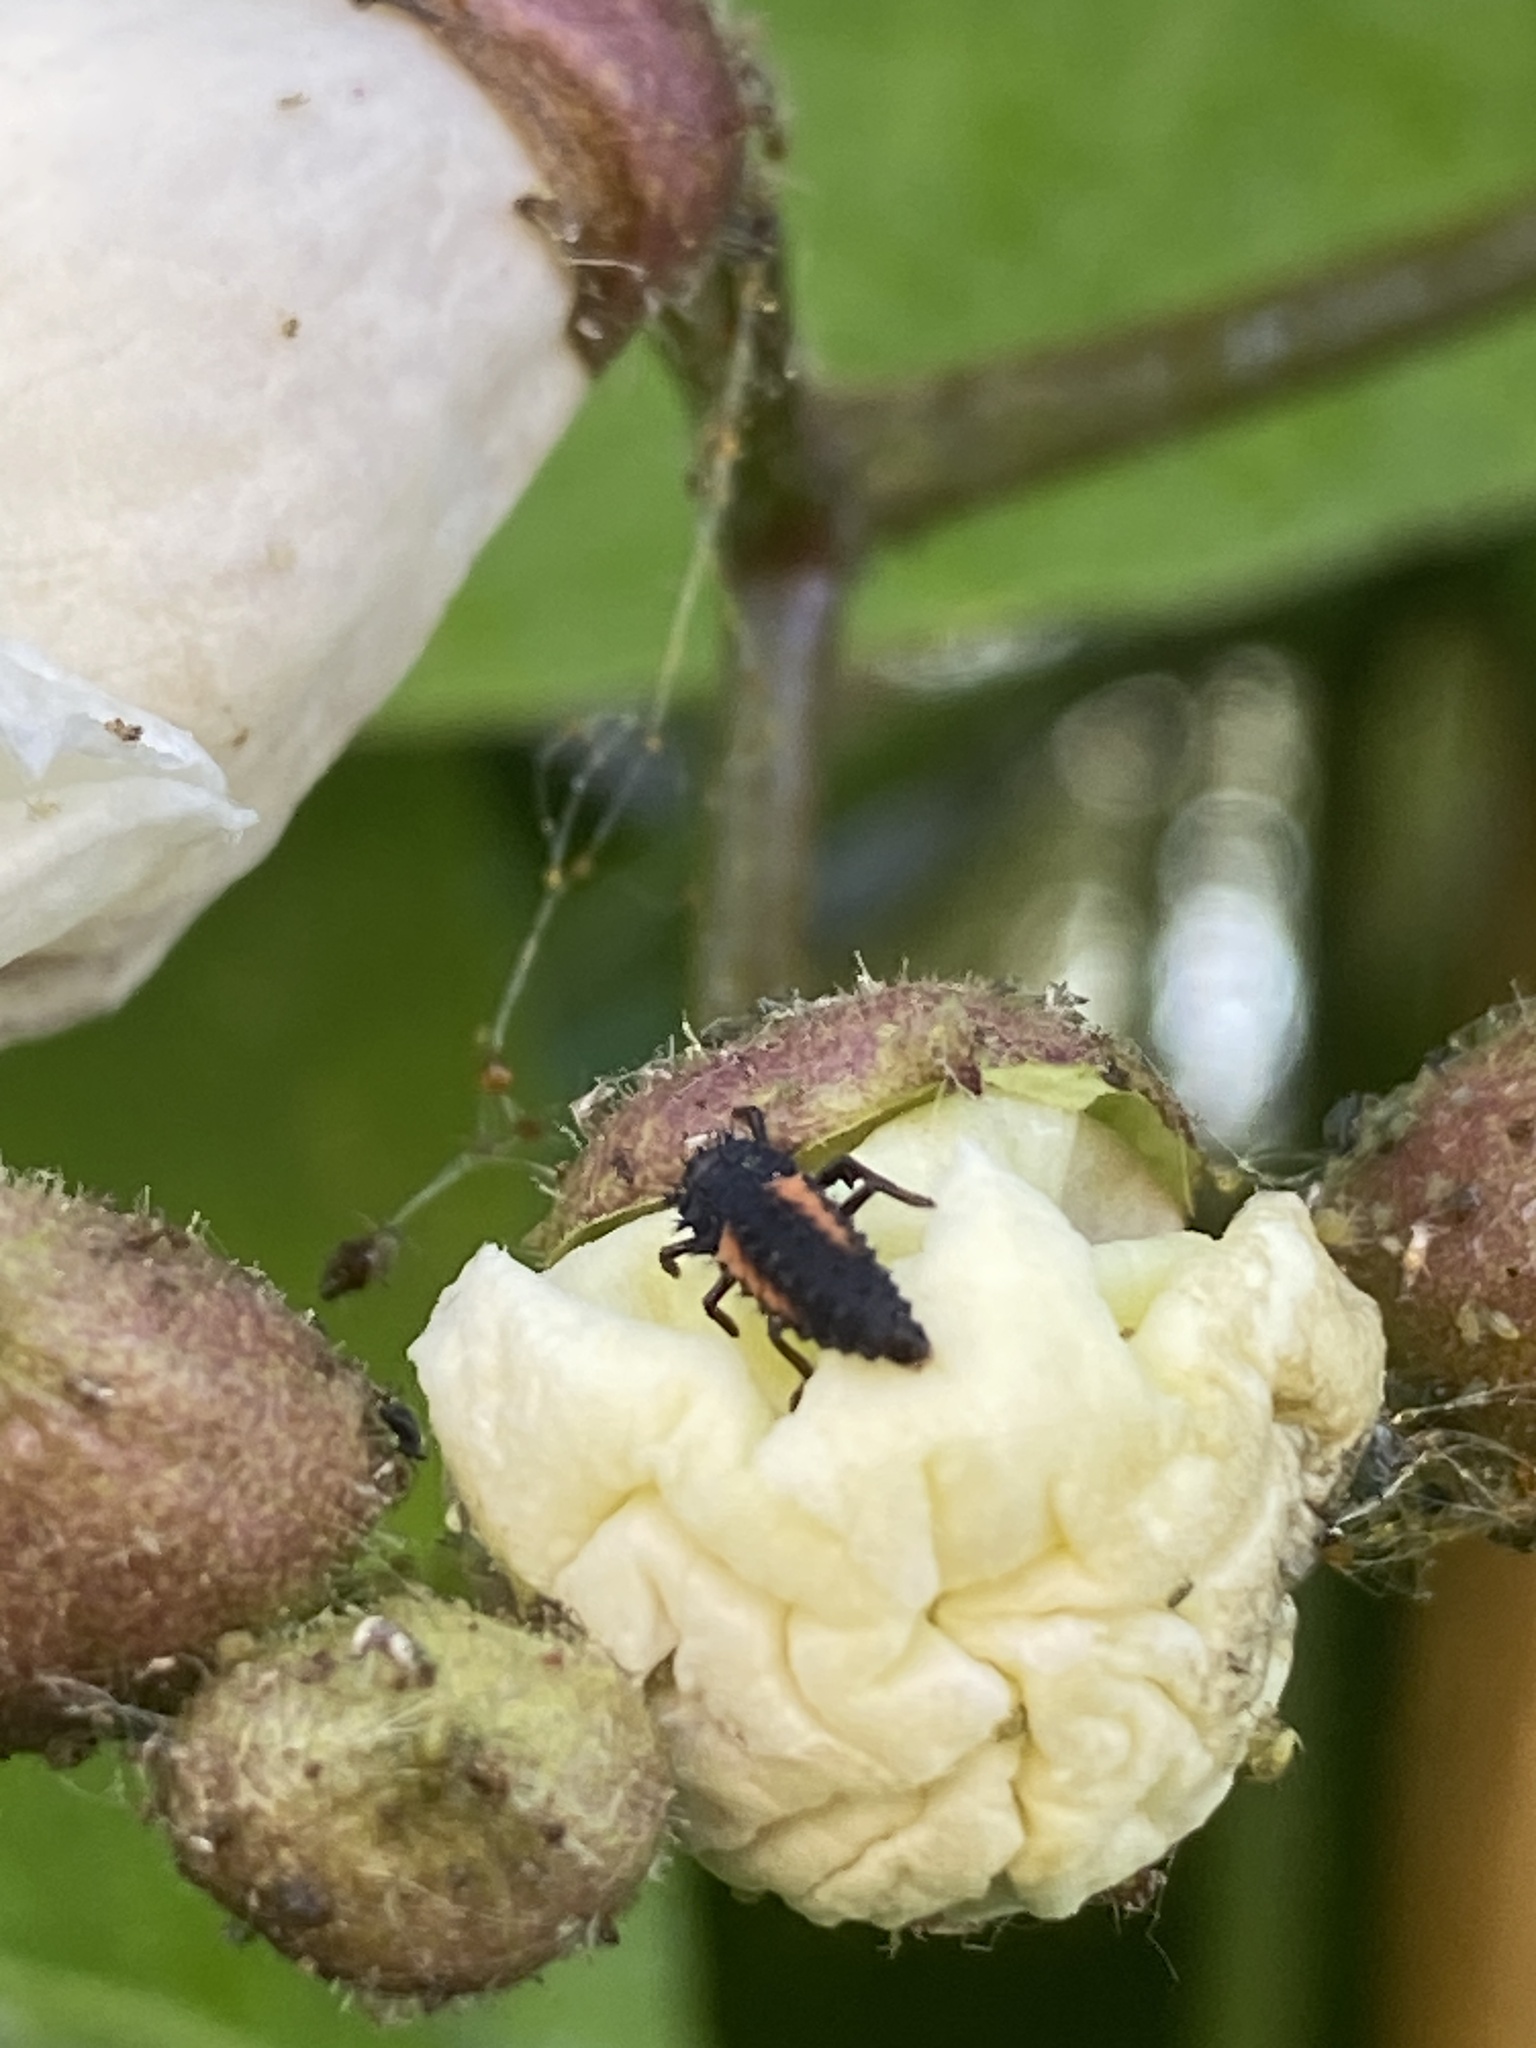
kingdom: Animalia
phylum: Arthropoda
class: Insecta
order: Coleoptera
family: Coccinellidae
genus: Harmonia
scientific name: Harmonia axyridis
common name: Harlequin ladybird
